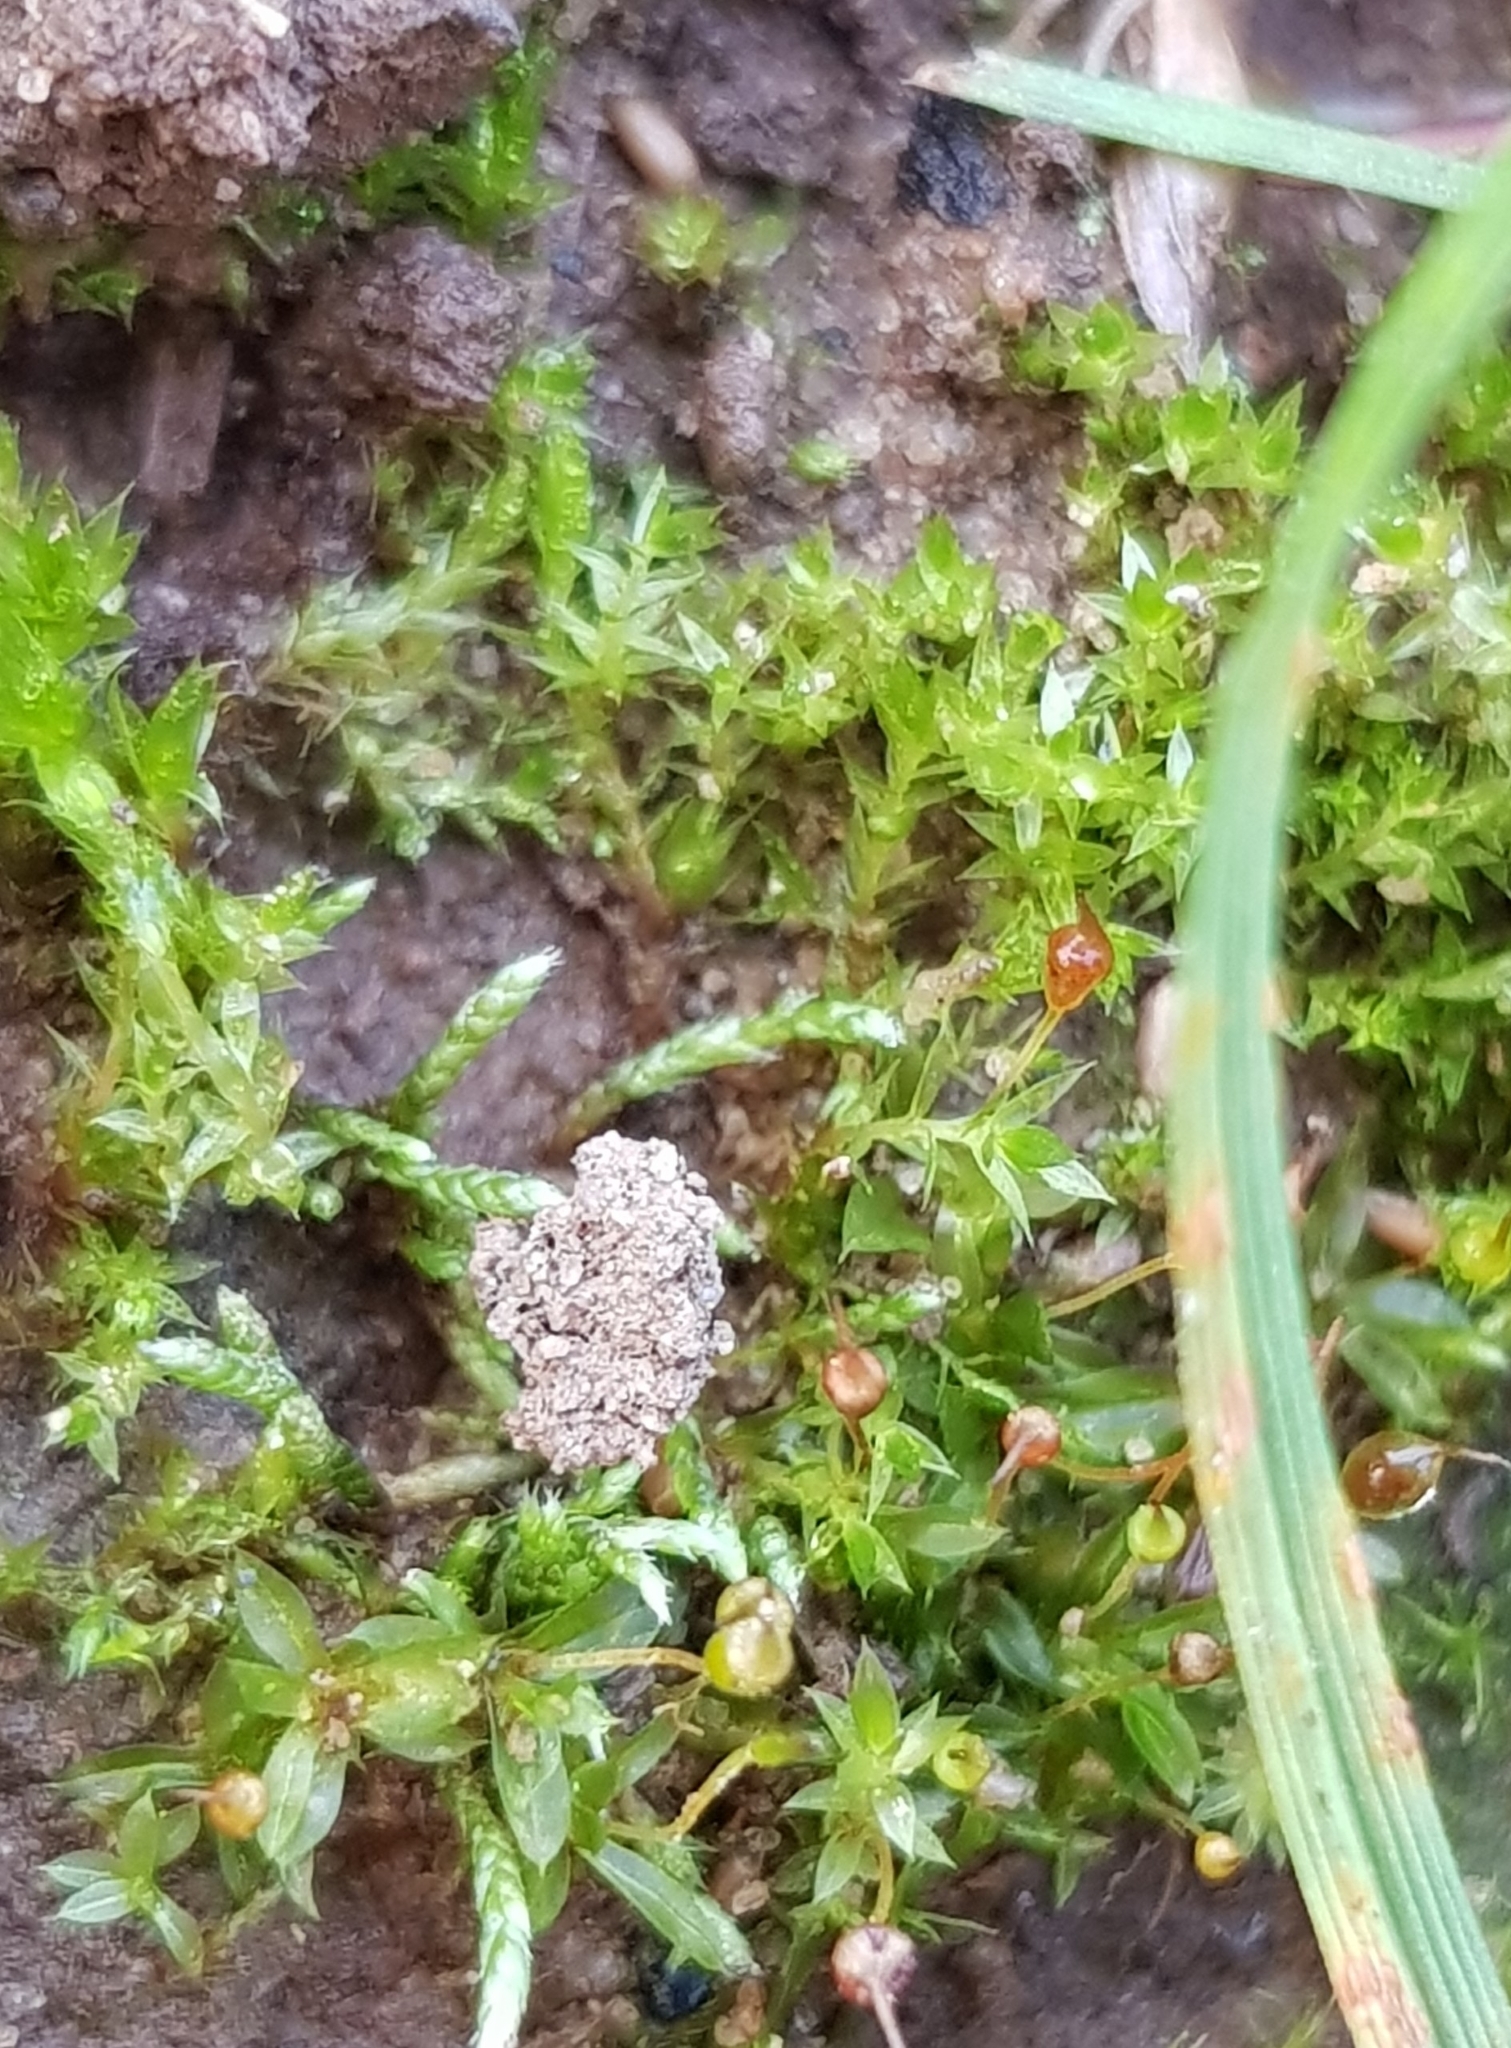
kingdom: Plantae
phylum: Bryophyta
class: Bryopsida
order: Pottiales
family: Pottiaceae
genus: Tortula
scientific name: Tortula truncata
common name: Truncated screw moss
